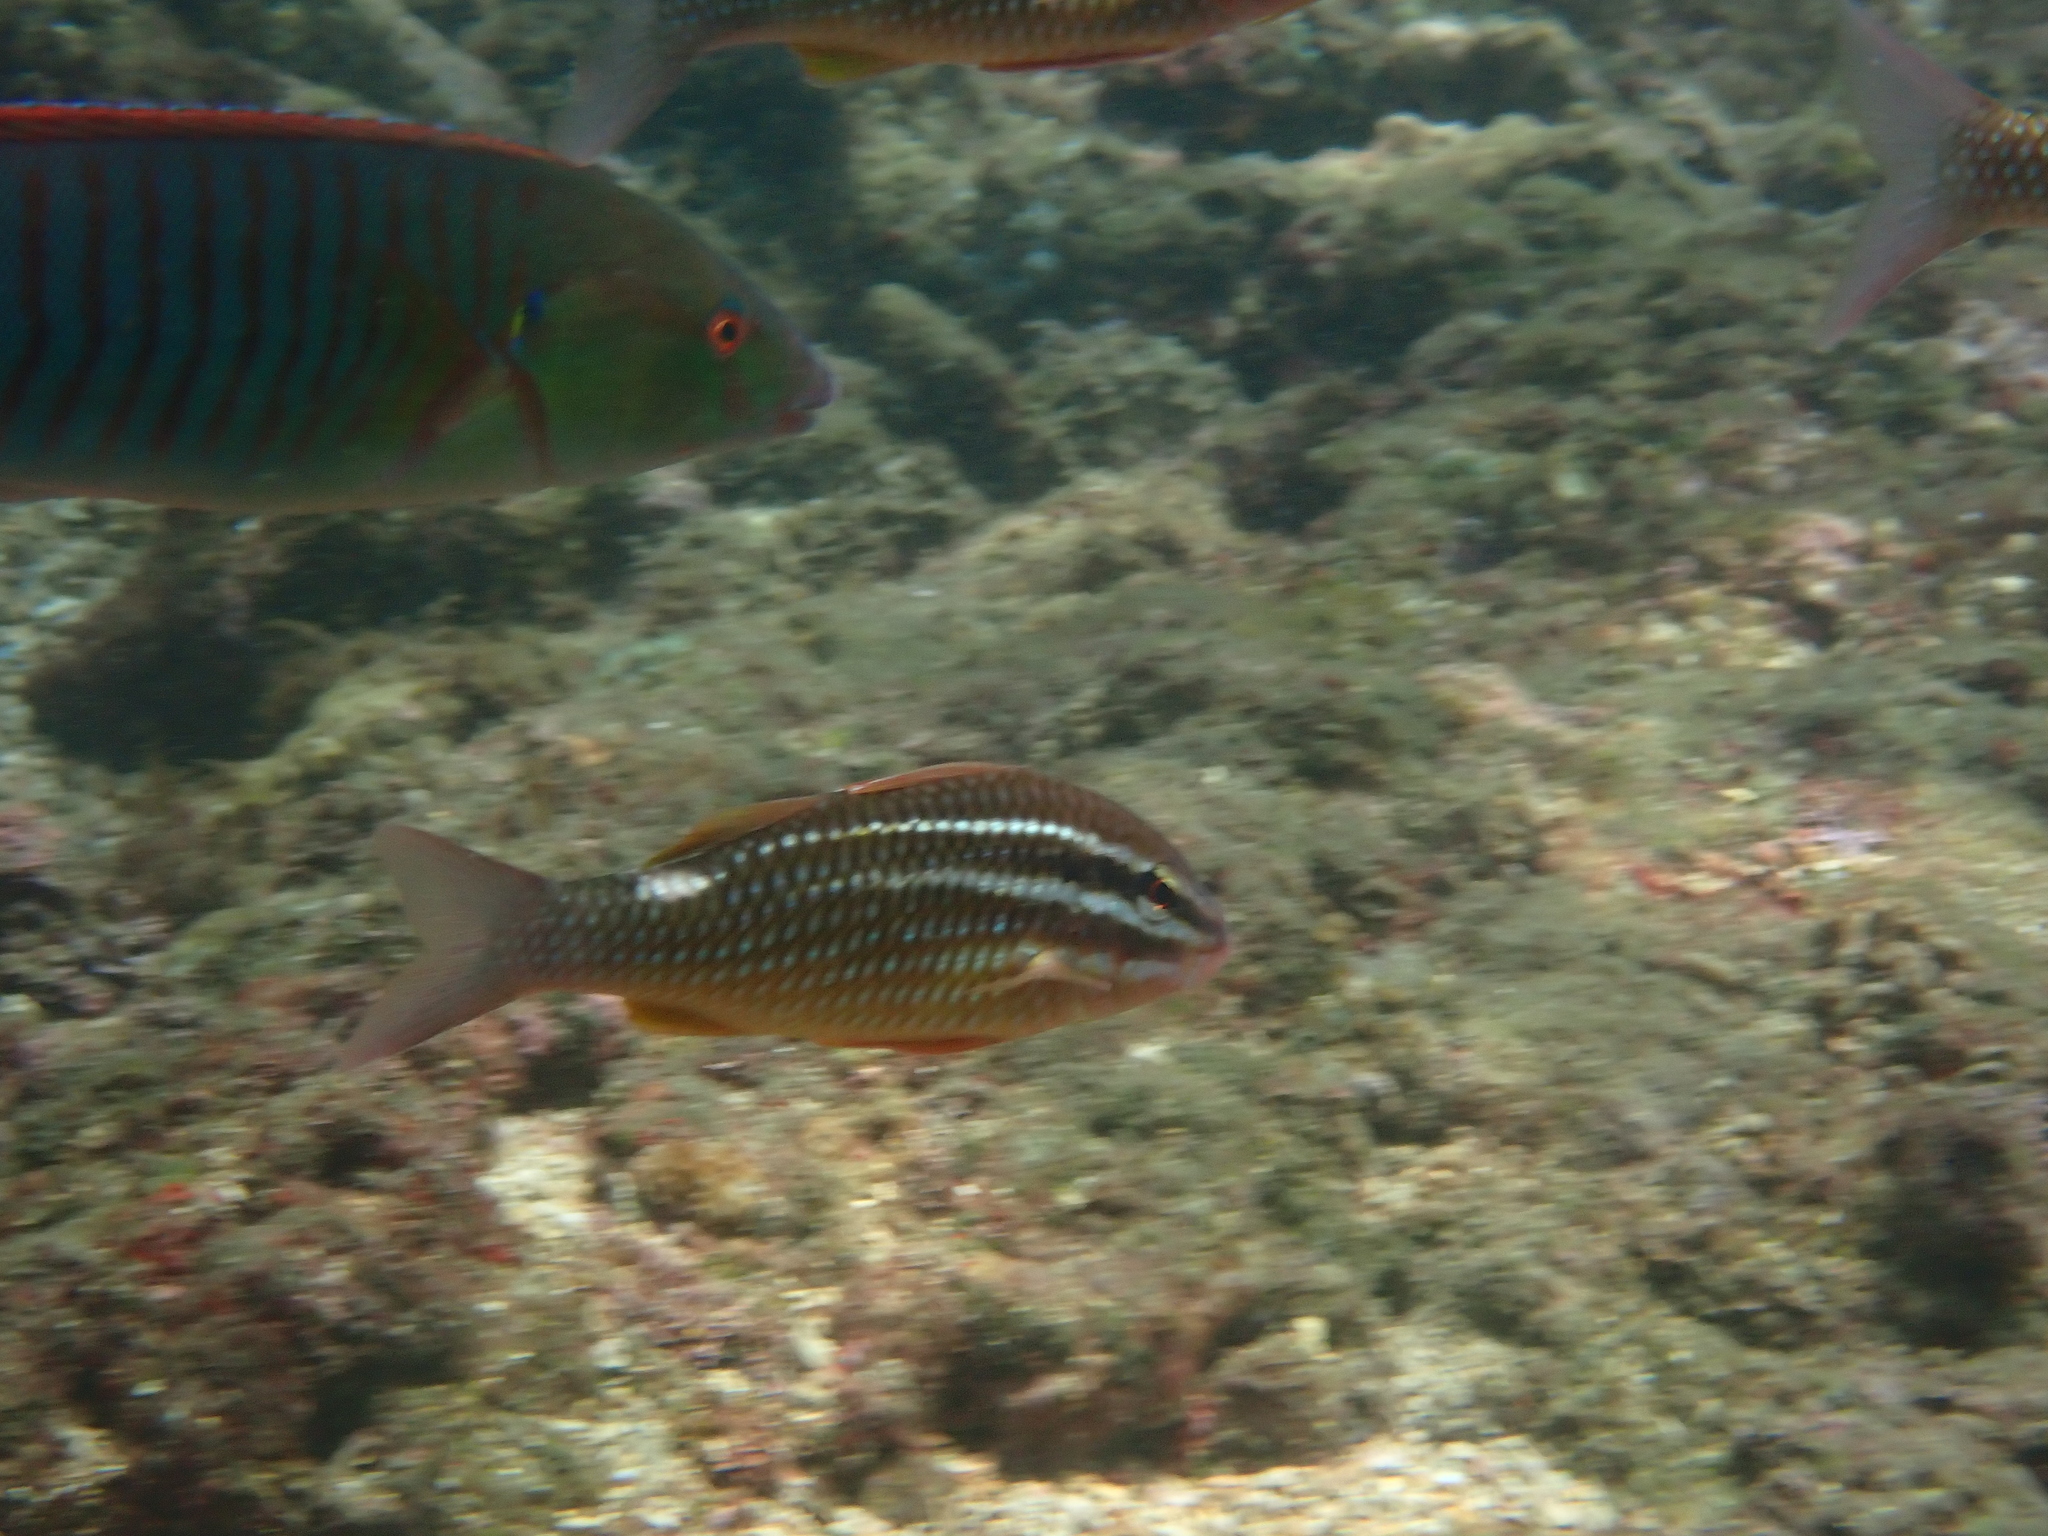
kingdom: Animalia
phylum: Chordata
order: Perciformes
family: Mullidae
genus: Parupeneus
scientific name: Parupeneus ciliatus
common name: White-lined goatfish
